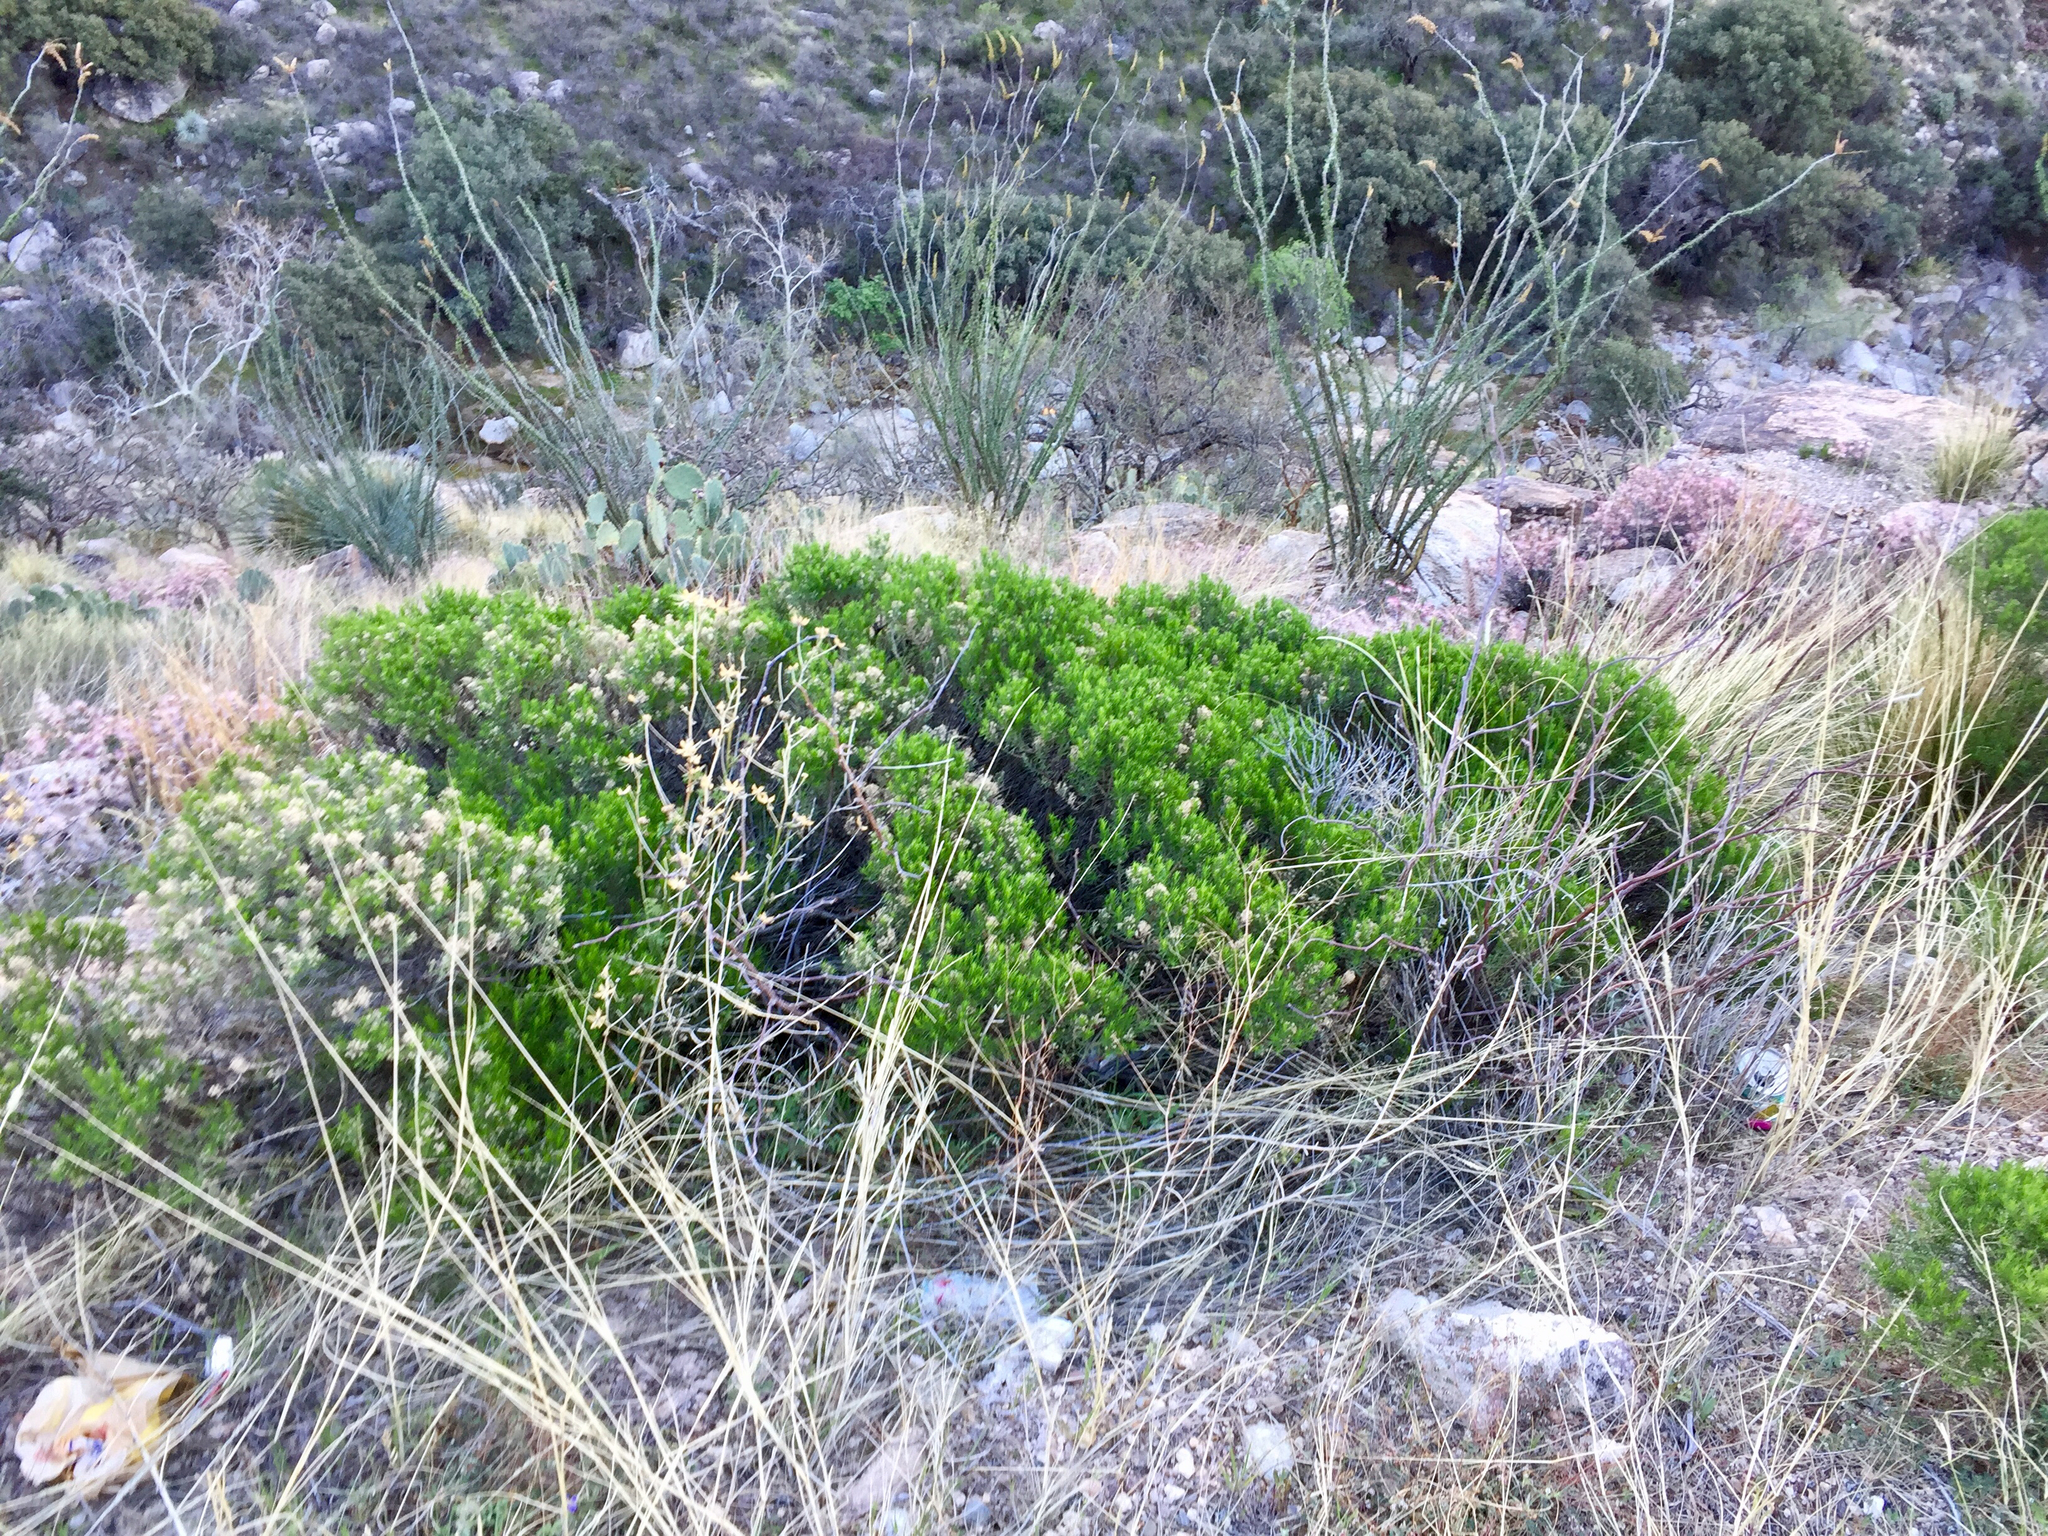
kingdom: Plantae
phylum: Tracheophyta
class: Magnoliopsida
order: Asterales
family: Asteraceae
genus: Ericameria
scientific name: Ericameria laricifolia
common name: Turpentine-bush
